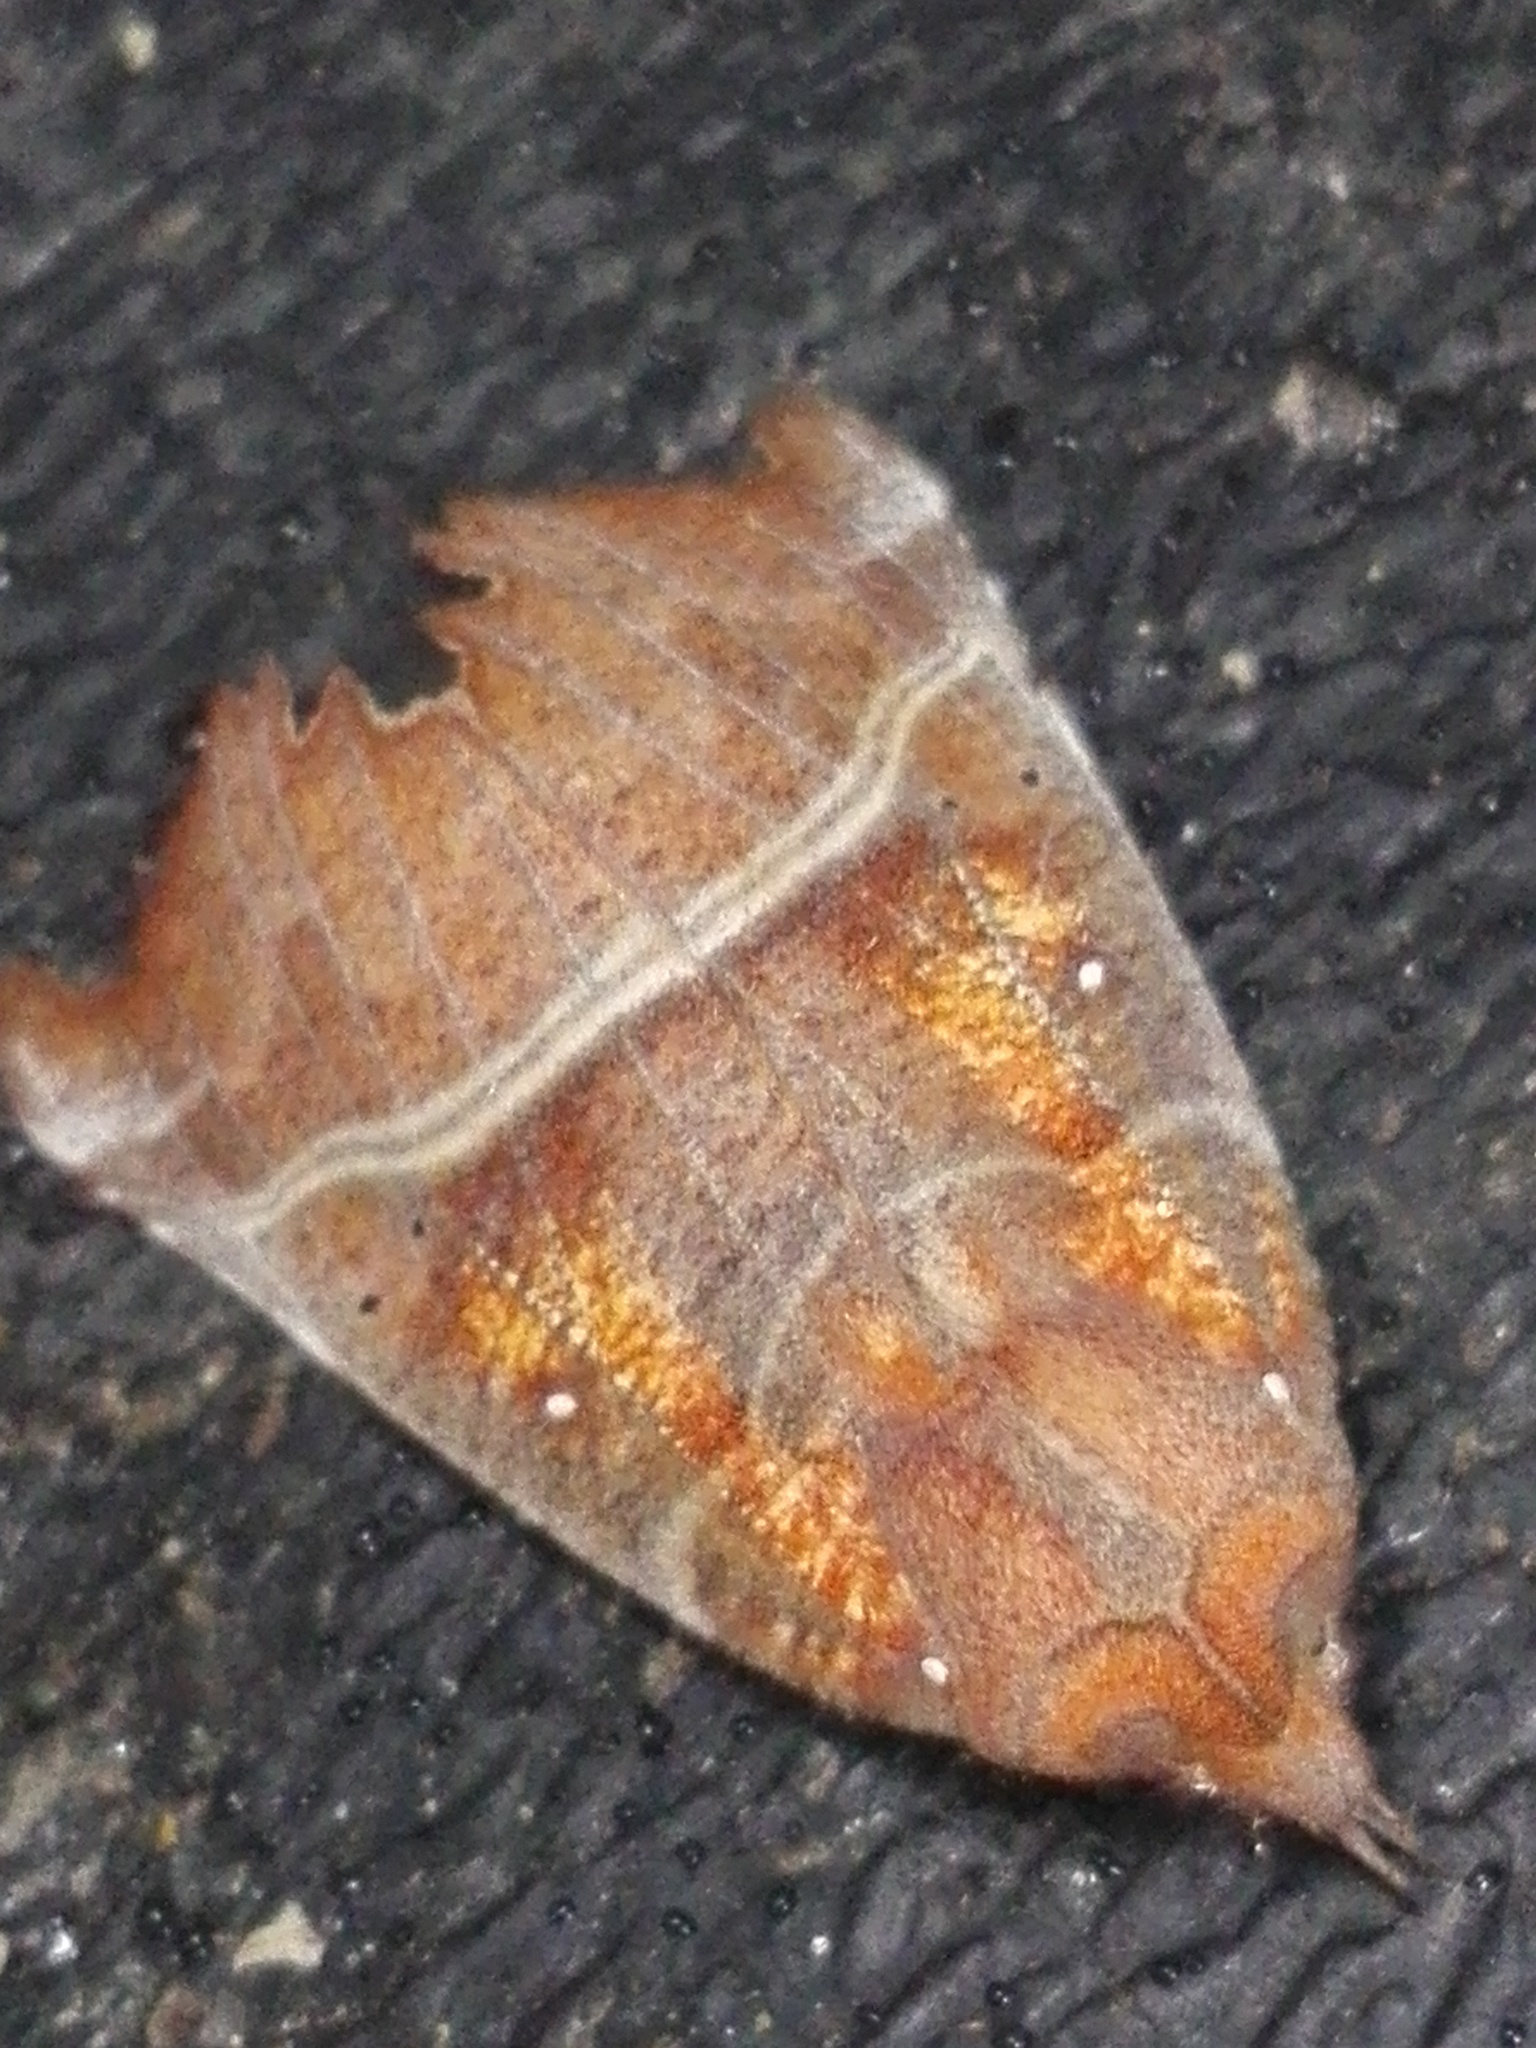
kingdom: Animalia
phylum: Arthropoda
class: Insecta
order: Lepidoptera
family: Erebidae
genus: Scoliopteryx
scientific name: Scoliopteryx libatrix
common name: Herald
